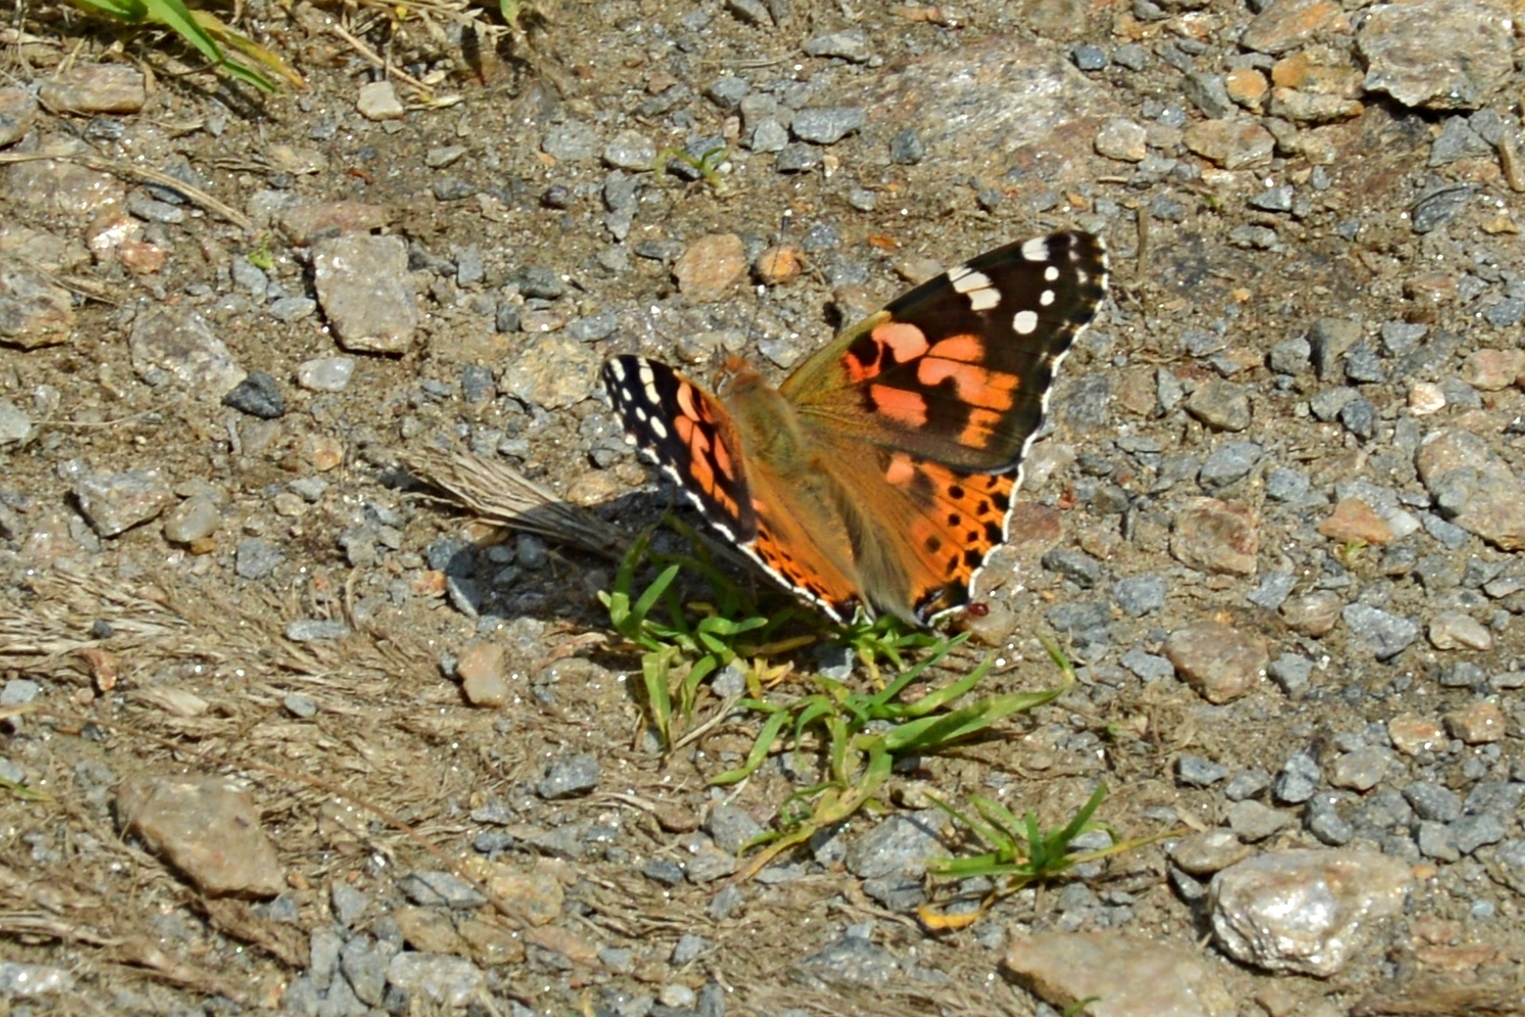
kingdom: Animalia
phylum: Arthropoda
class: Insecta
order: Lepidoptera
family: Nymphalidae
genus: Vanessa
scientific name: Vanessa cardui
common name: Painted lady
